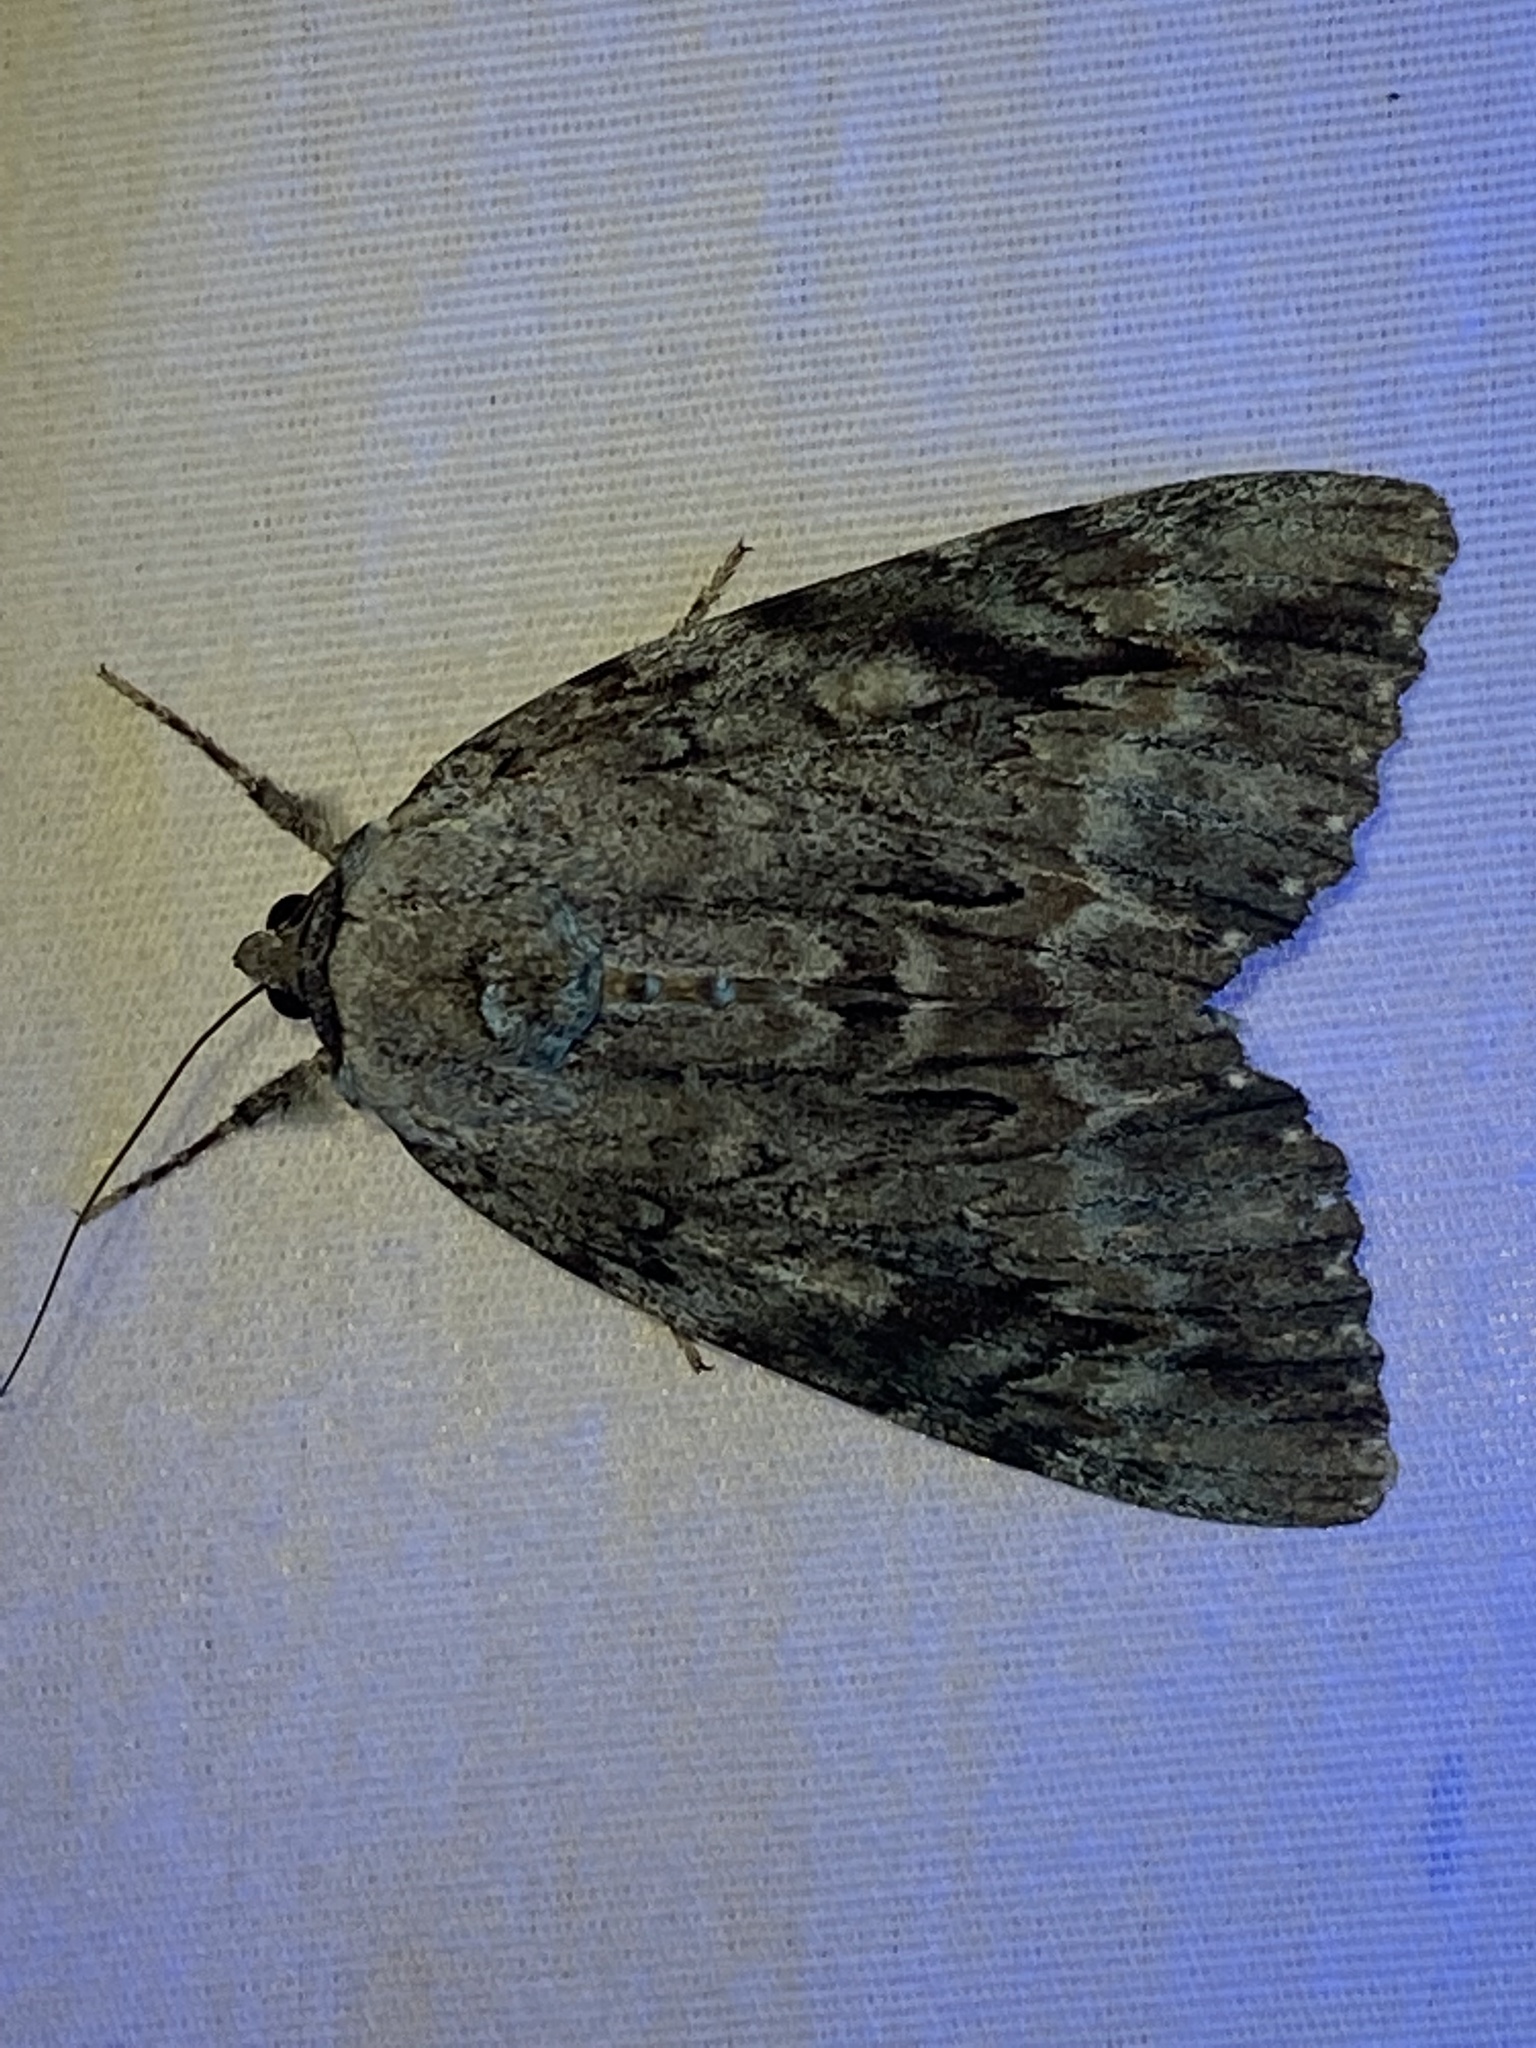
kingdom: Animalia
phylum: Arthropoda
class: Insecta
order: Lepidoptera
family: Erebidae
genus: Catocala
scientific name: Catocala maestosa
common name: Sad underwing
